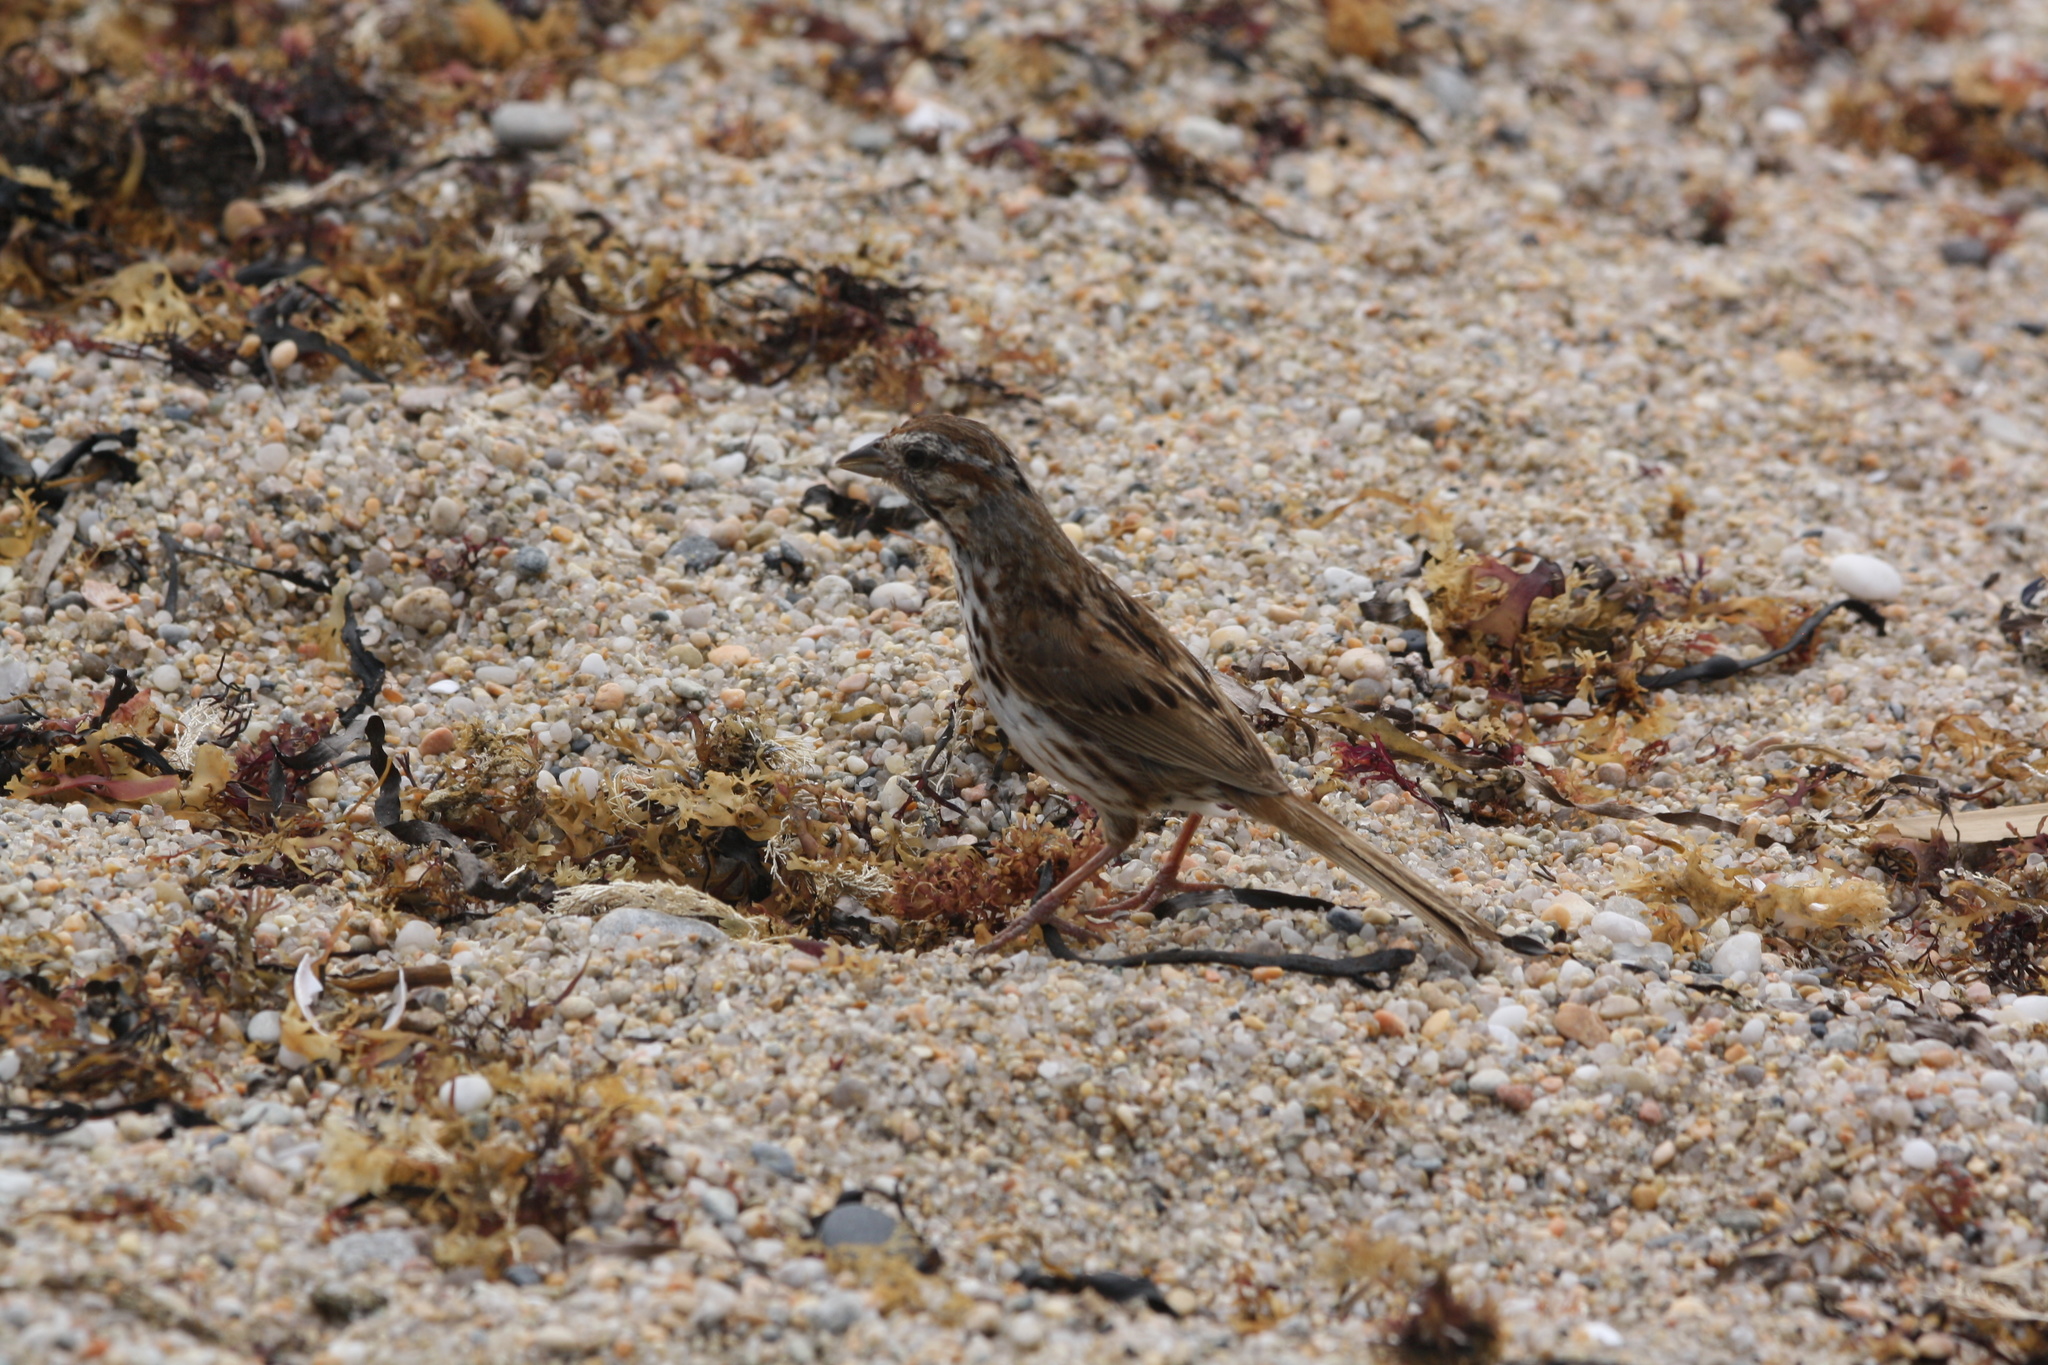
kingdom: Animalia
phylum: Chordata
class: Aves
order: Passeriformes
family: Passerellidae
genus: Melospiza
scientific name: Melospiza melodia
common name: Song sparrow
